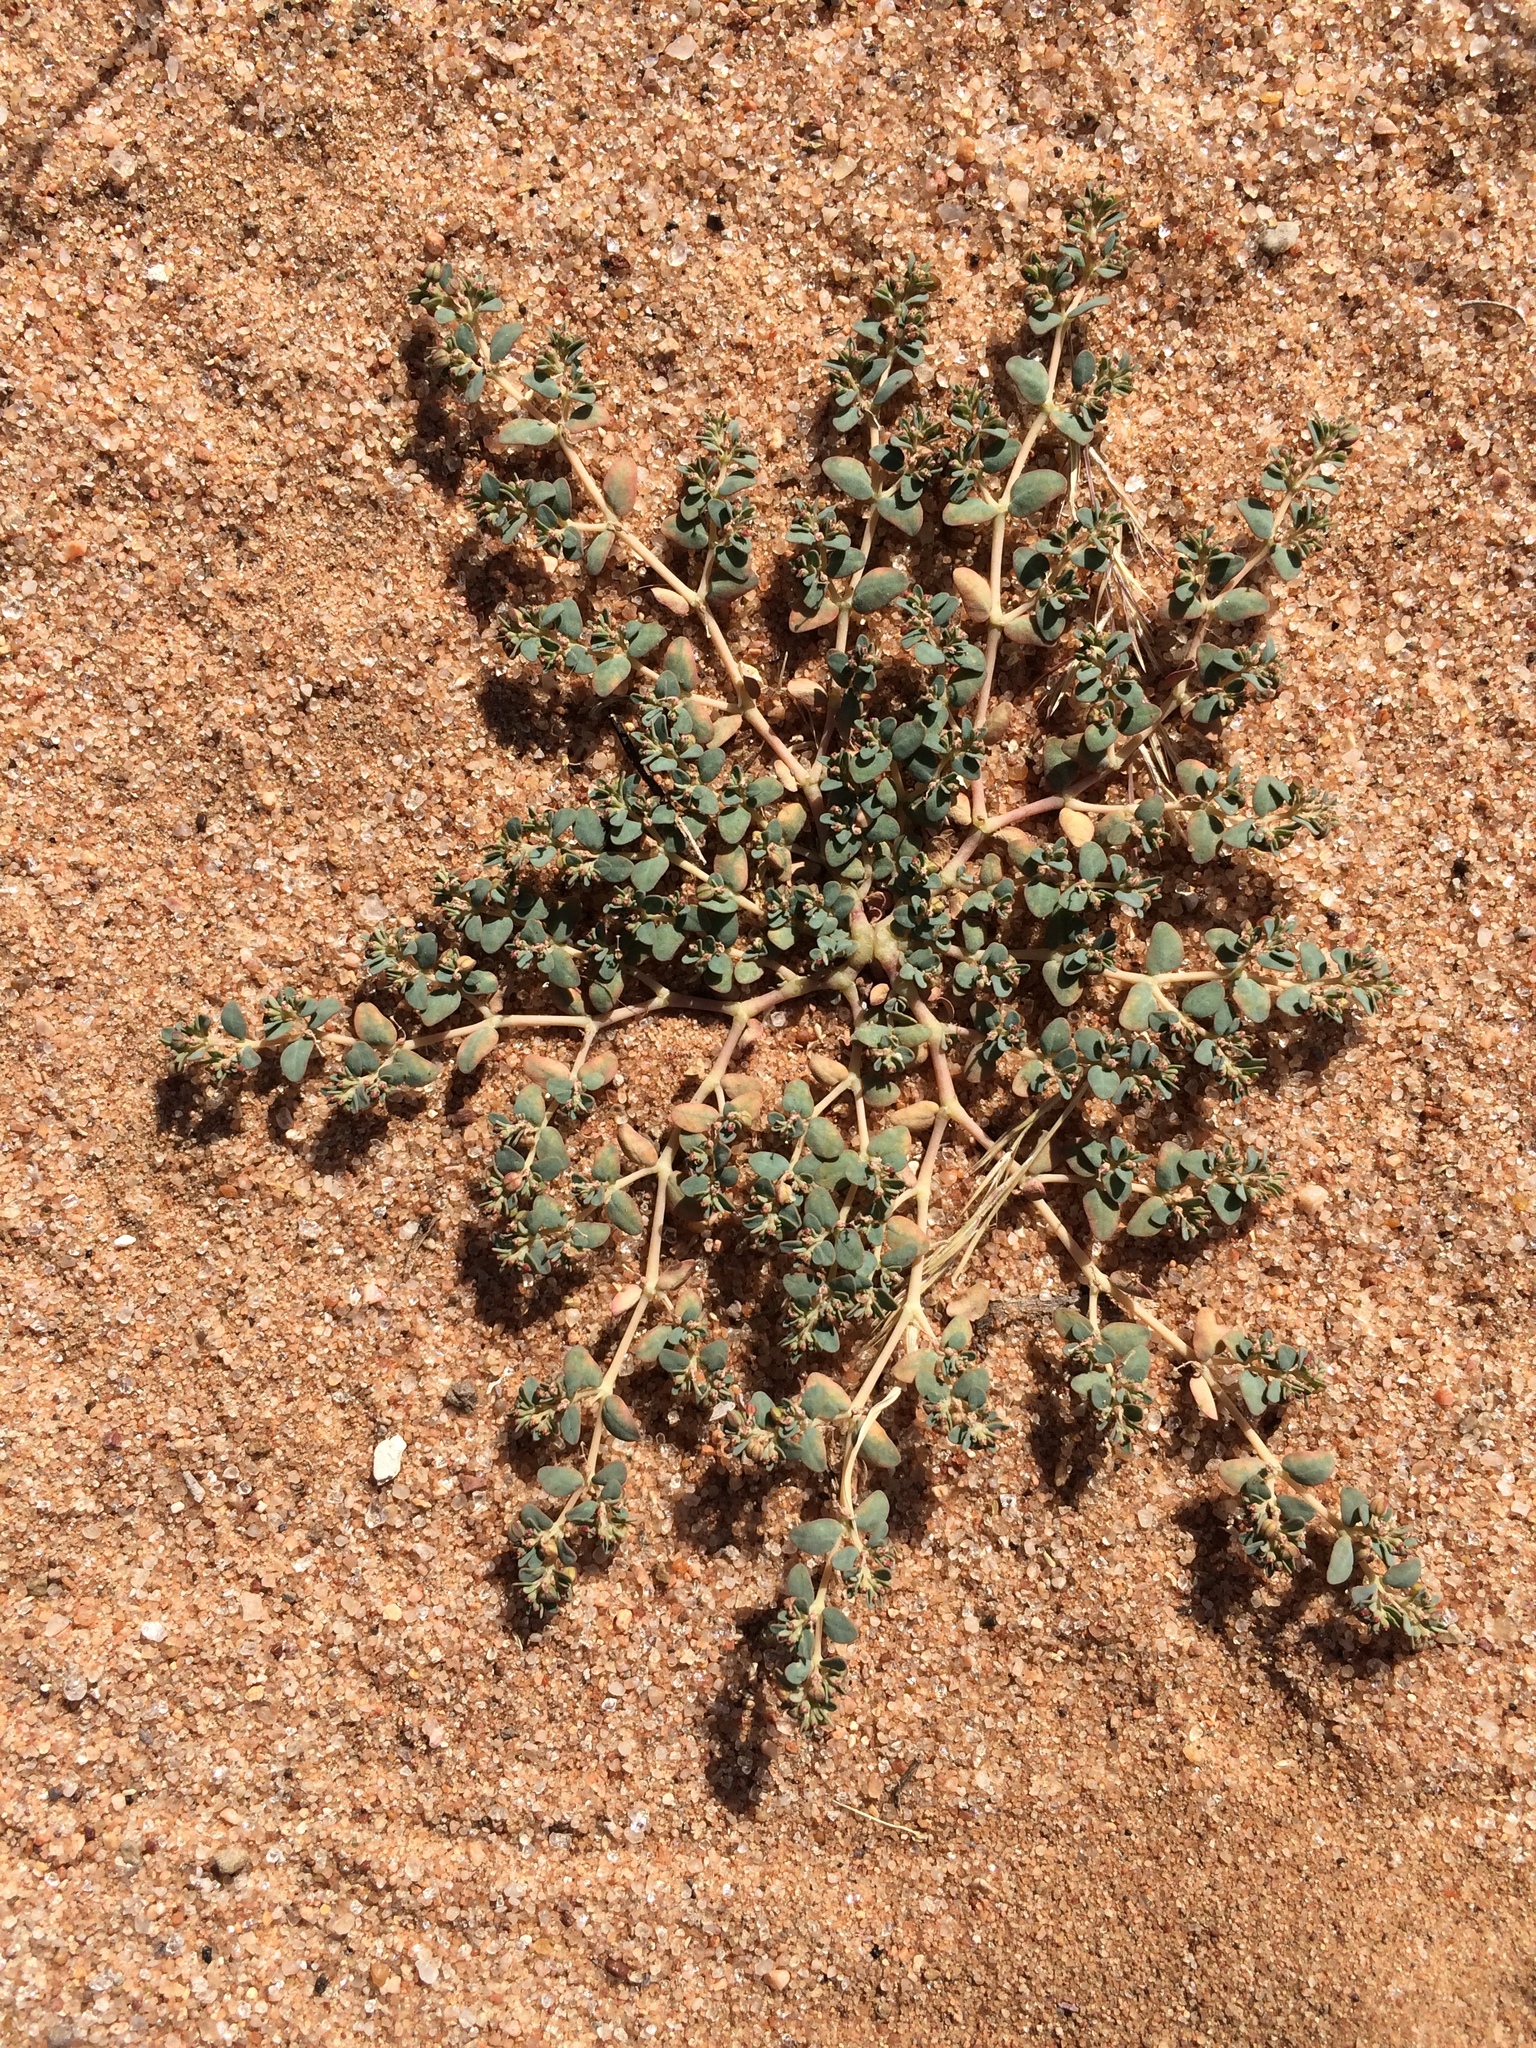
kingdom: Plantae
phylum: Tracheophyta
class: Magnoliopsida
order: Malpighiales
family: Euphorbiaceae
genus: Euphorbia
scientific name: Euphorbia micromera
